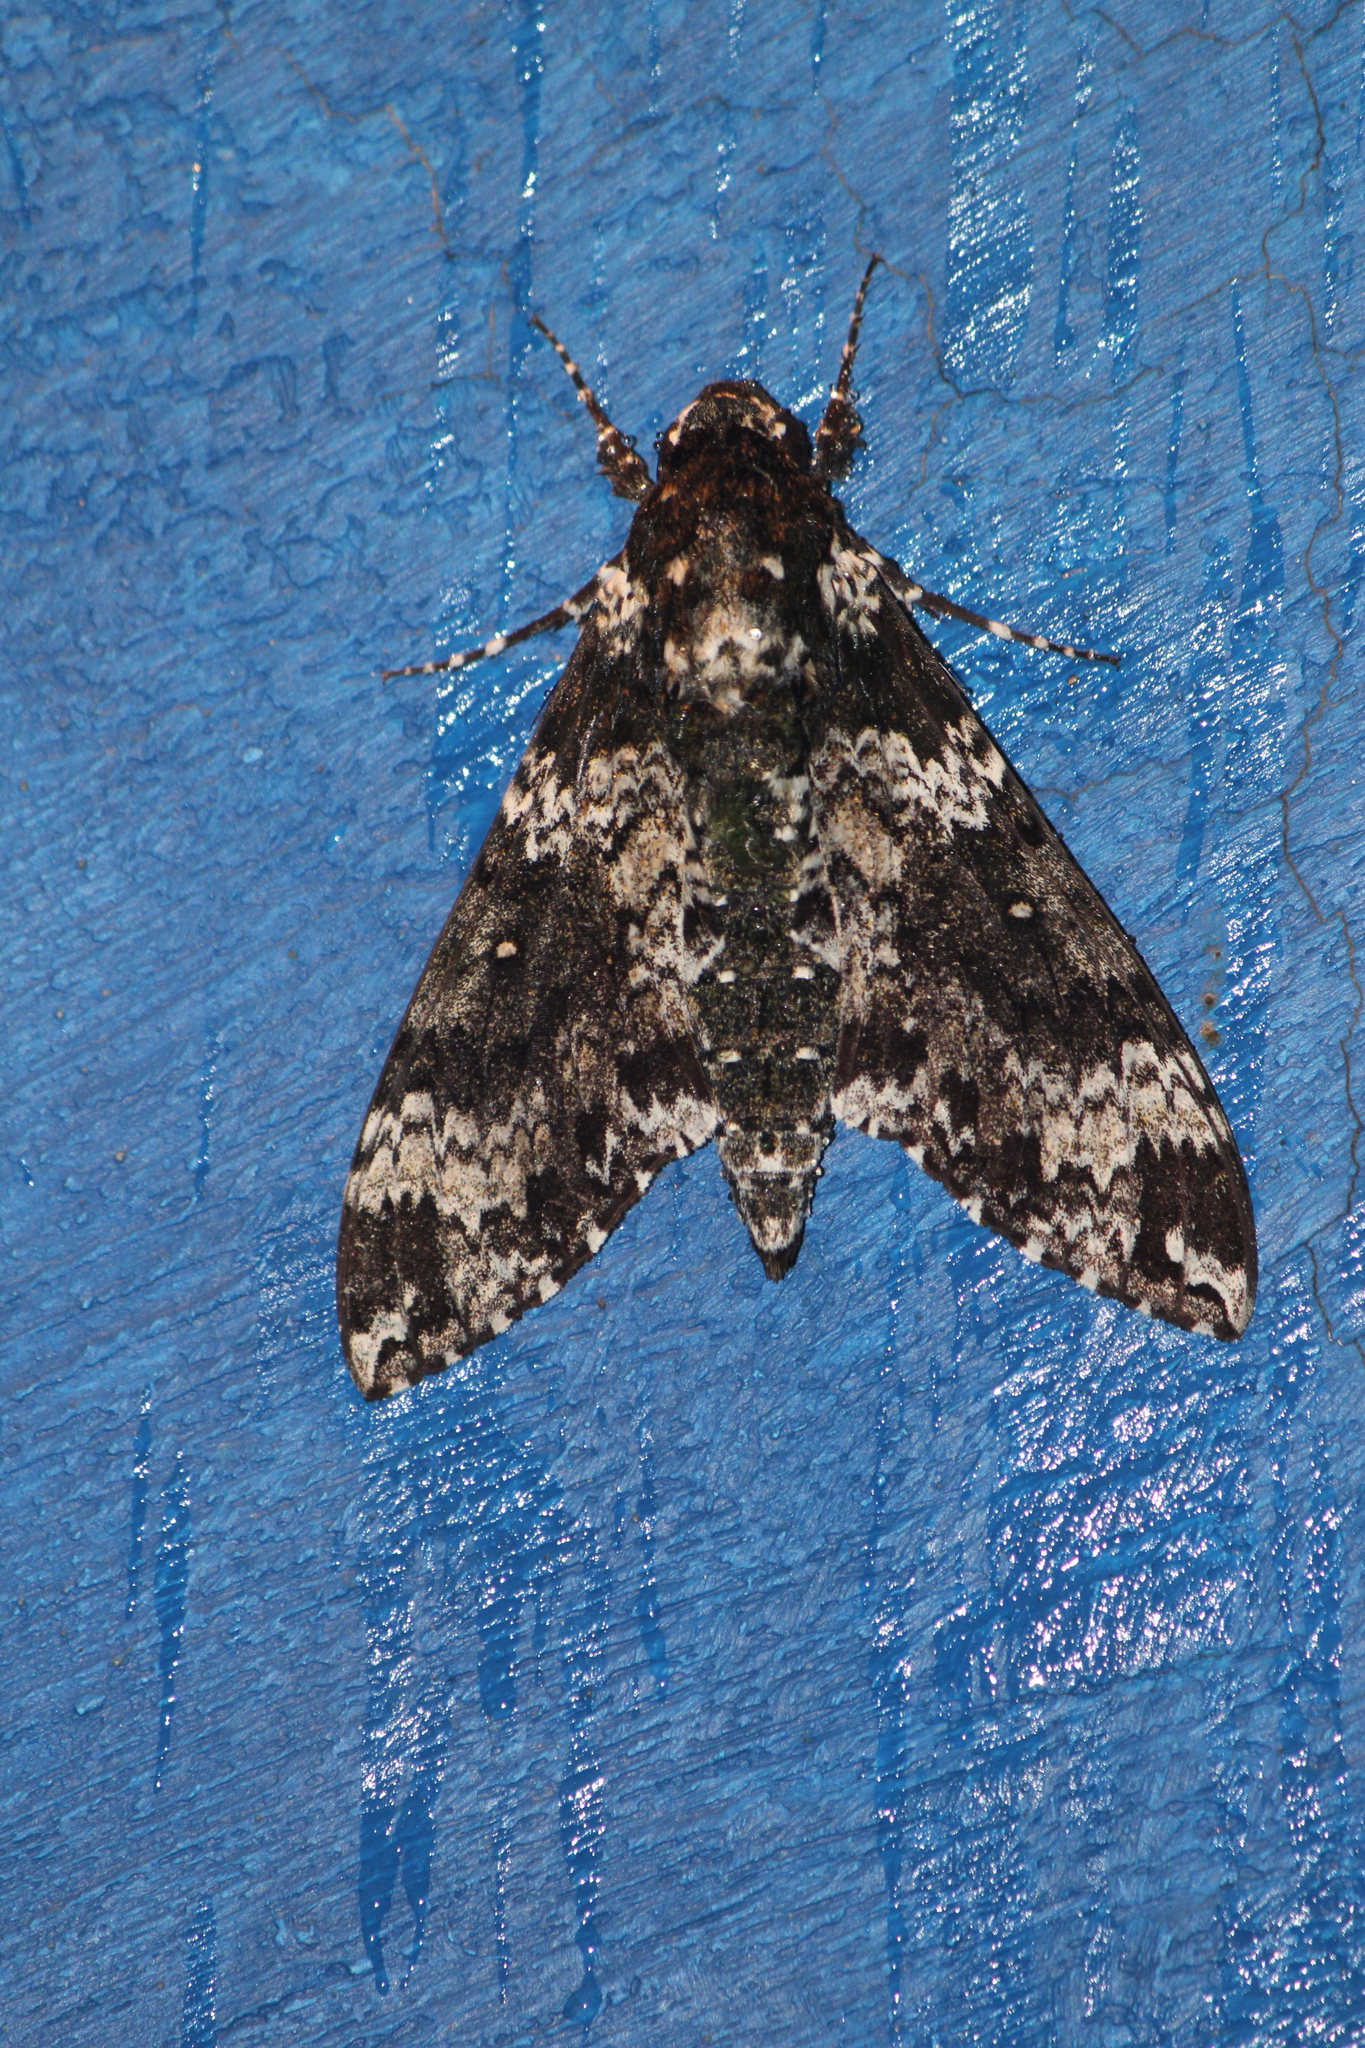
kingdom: Animalia
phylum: Arthropoda
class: Insecta
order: Lepidoptera
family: Sphingidae
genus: Manduca
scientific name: Manduca rustica
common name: Rustic sphinx
